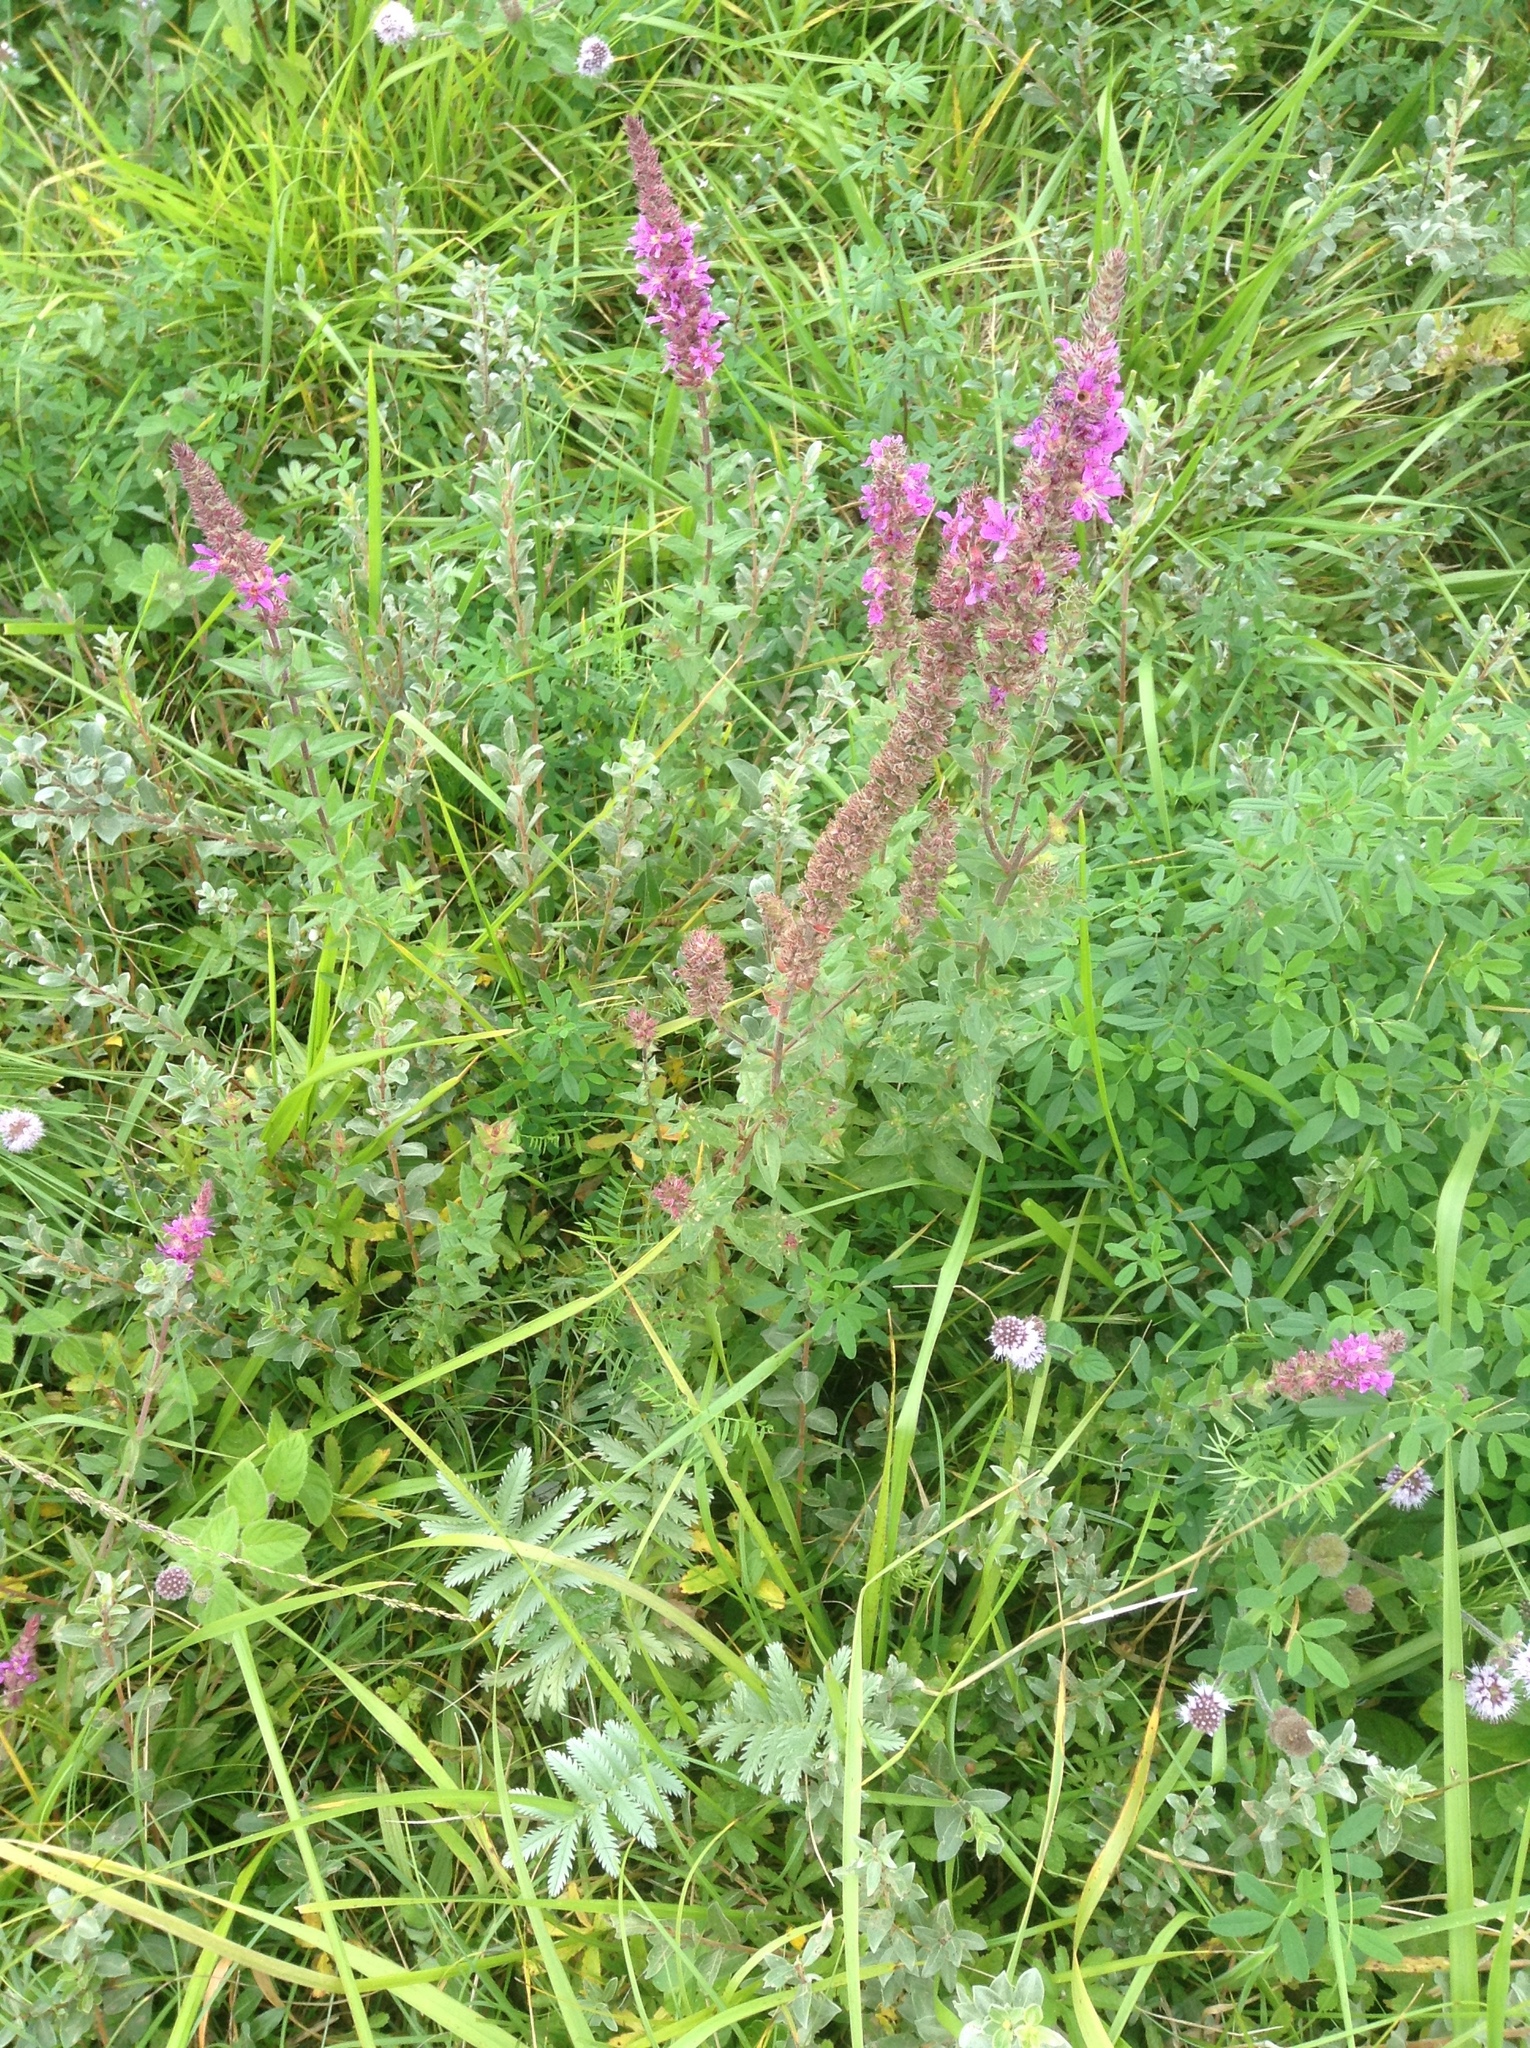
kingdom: Plantae
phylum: Tracheophyta
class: Magnoliopsida
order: Myrtales
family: Lythraceae
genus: Lythrum
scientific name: Lythrum salicaria
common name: Purple loosestrife
